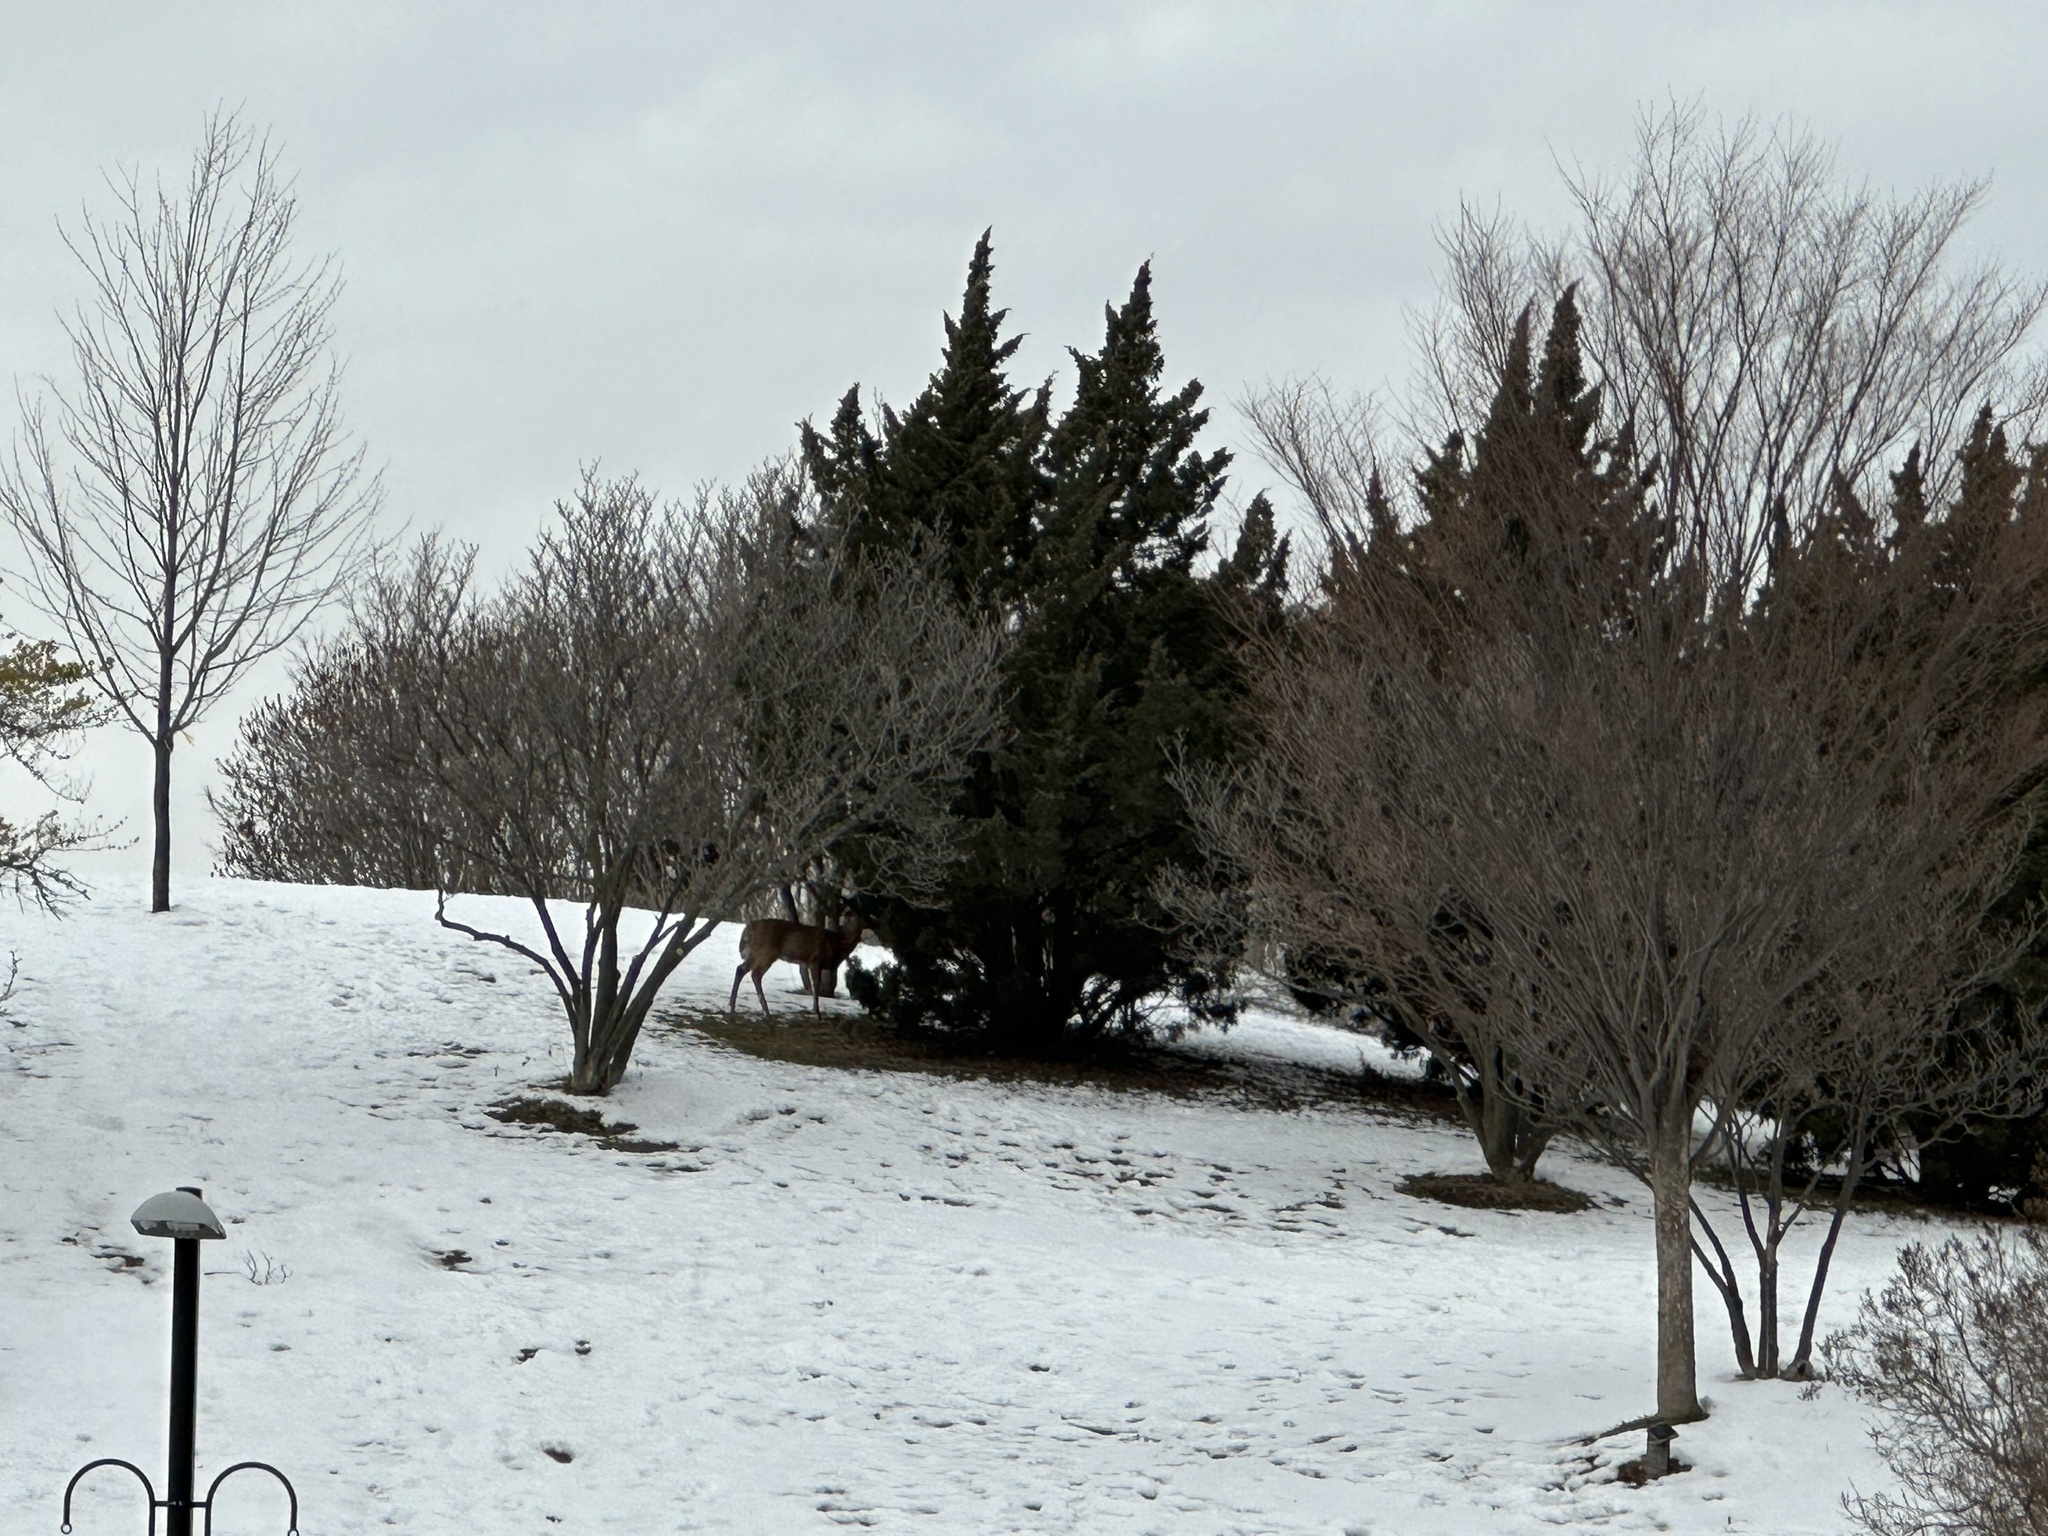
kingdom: Animalia
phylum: Chordata
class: Mammalia
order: Artiodactyla
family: Cervidae
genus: Odocoileus
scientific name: Odocoileus virginianus
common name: White-tailed deer
